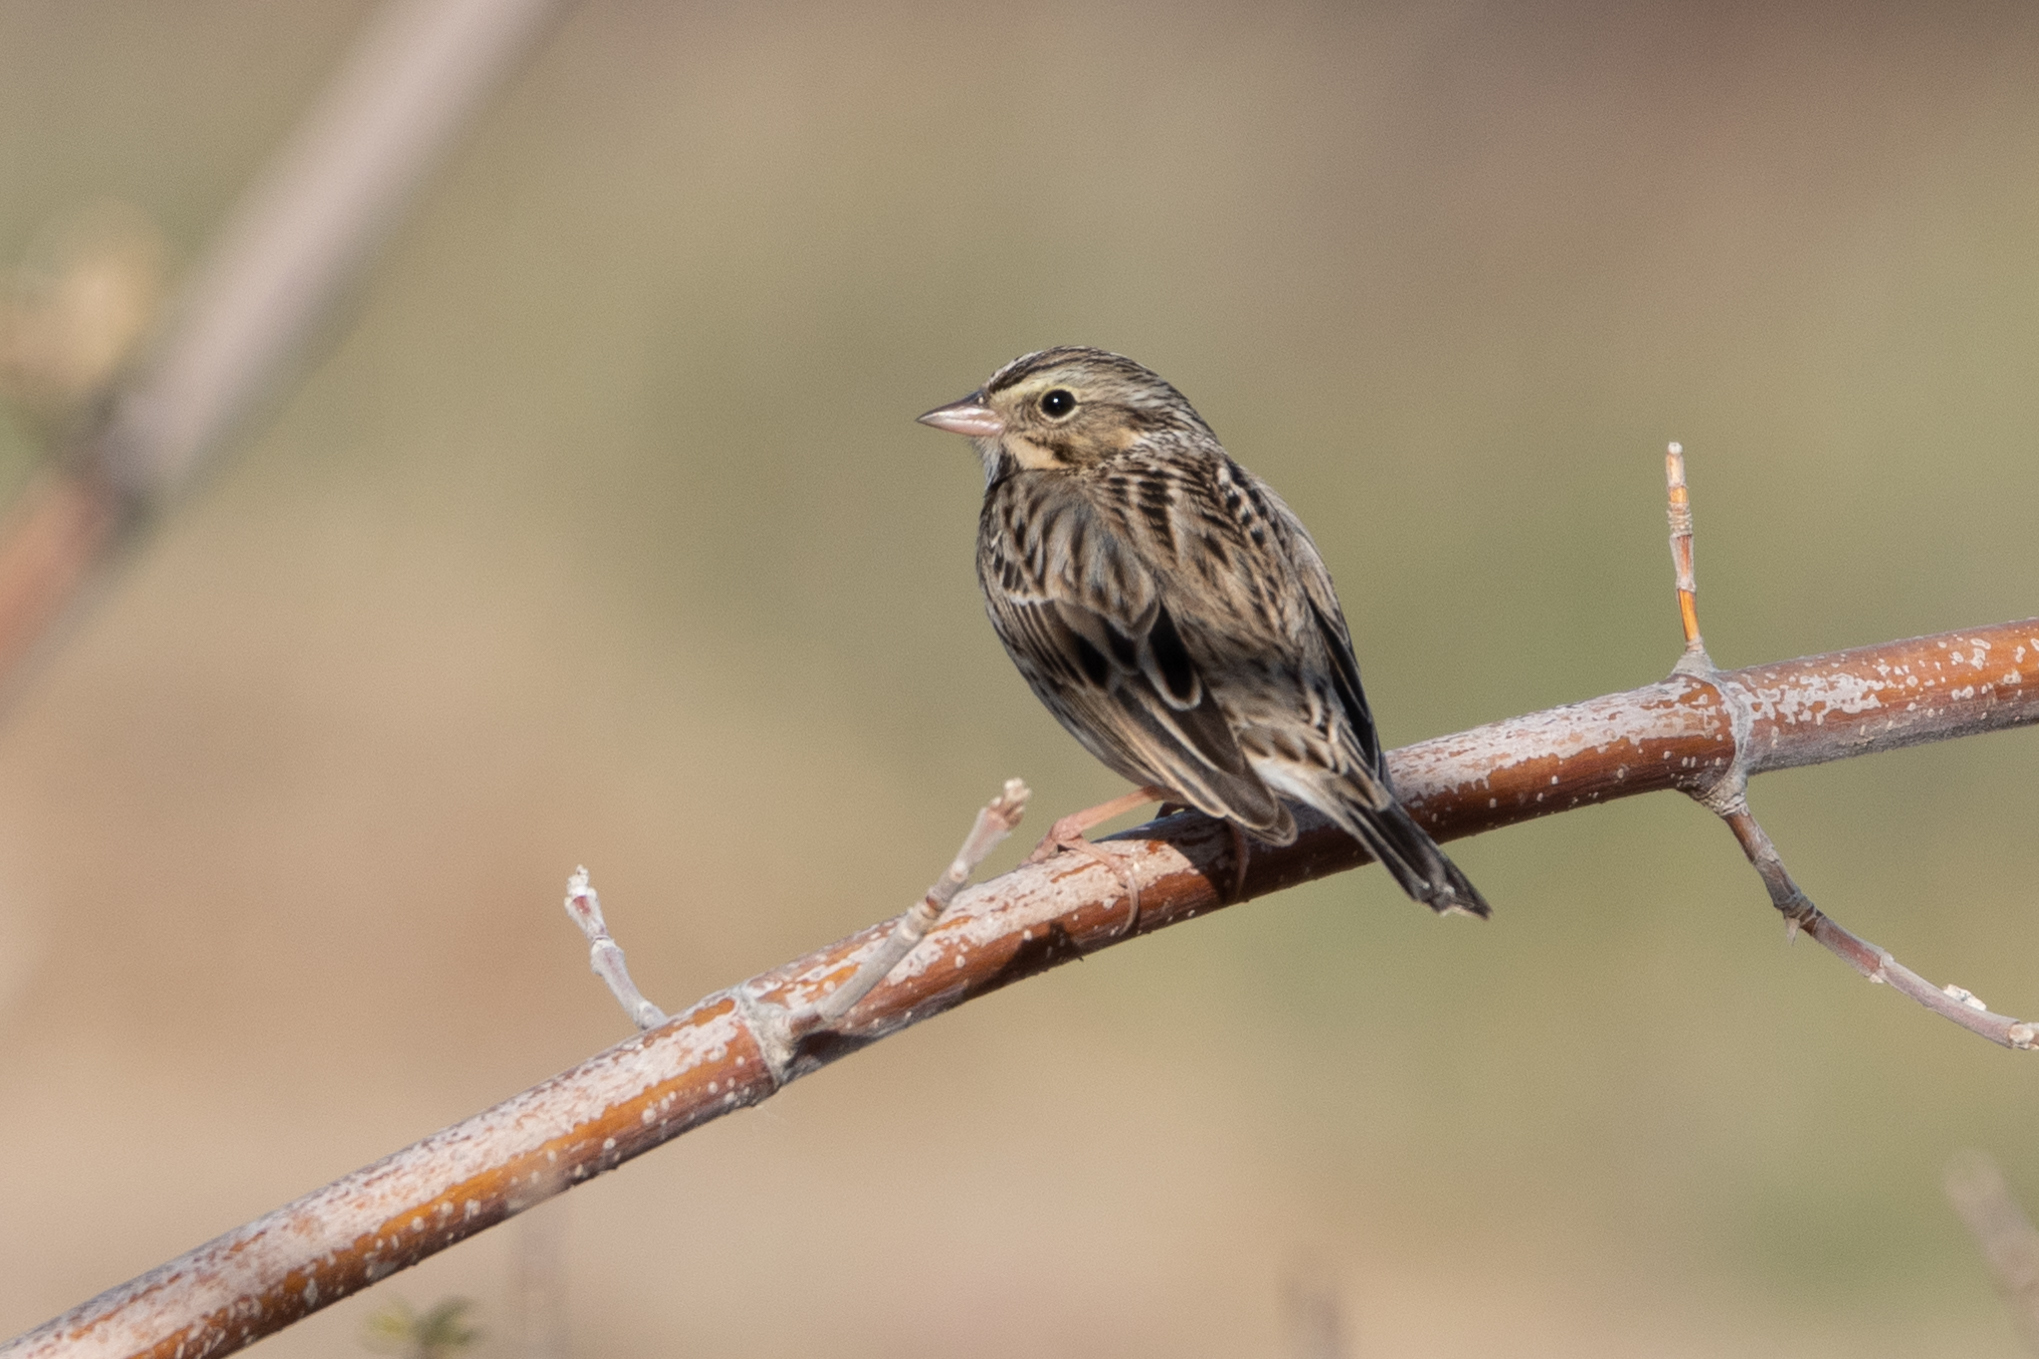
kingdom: Animalia
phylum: Chordata
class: Aves
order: Passeriformes
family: Passerellidae
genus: Passerculus
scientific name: Passerculus sandwichensis
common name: Savannah sparrow
